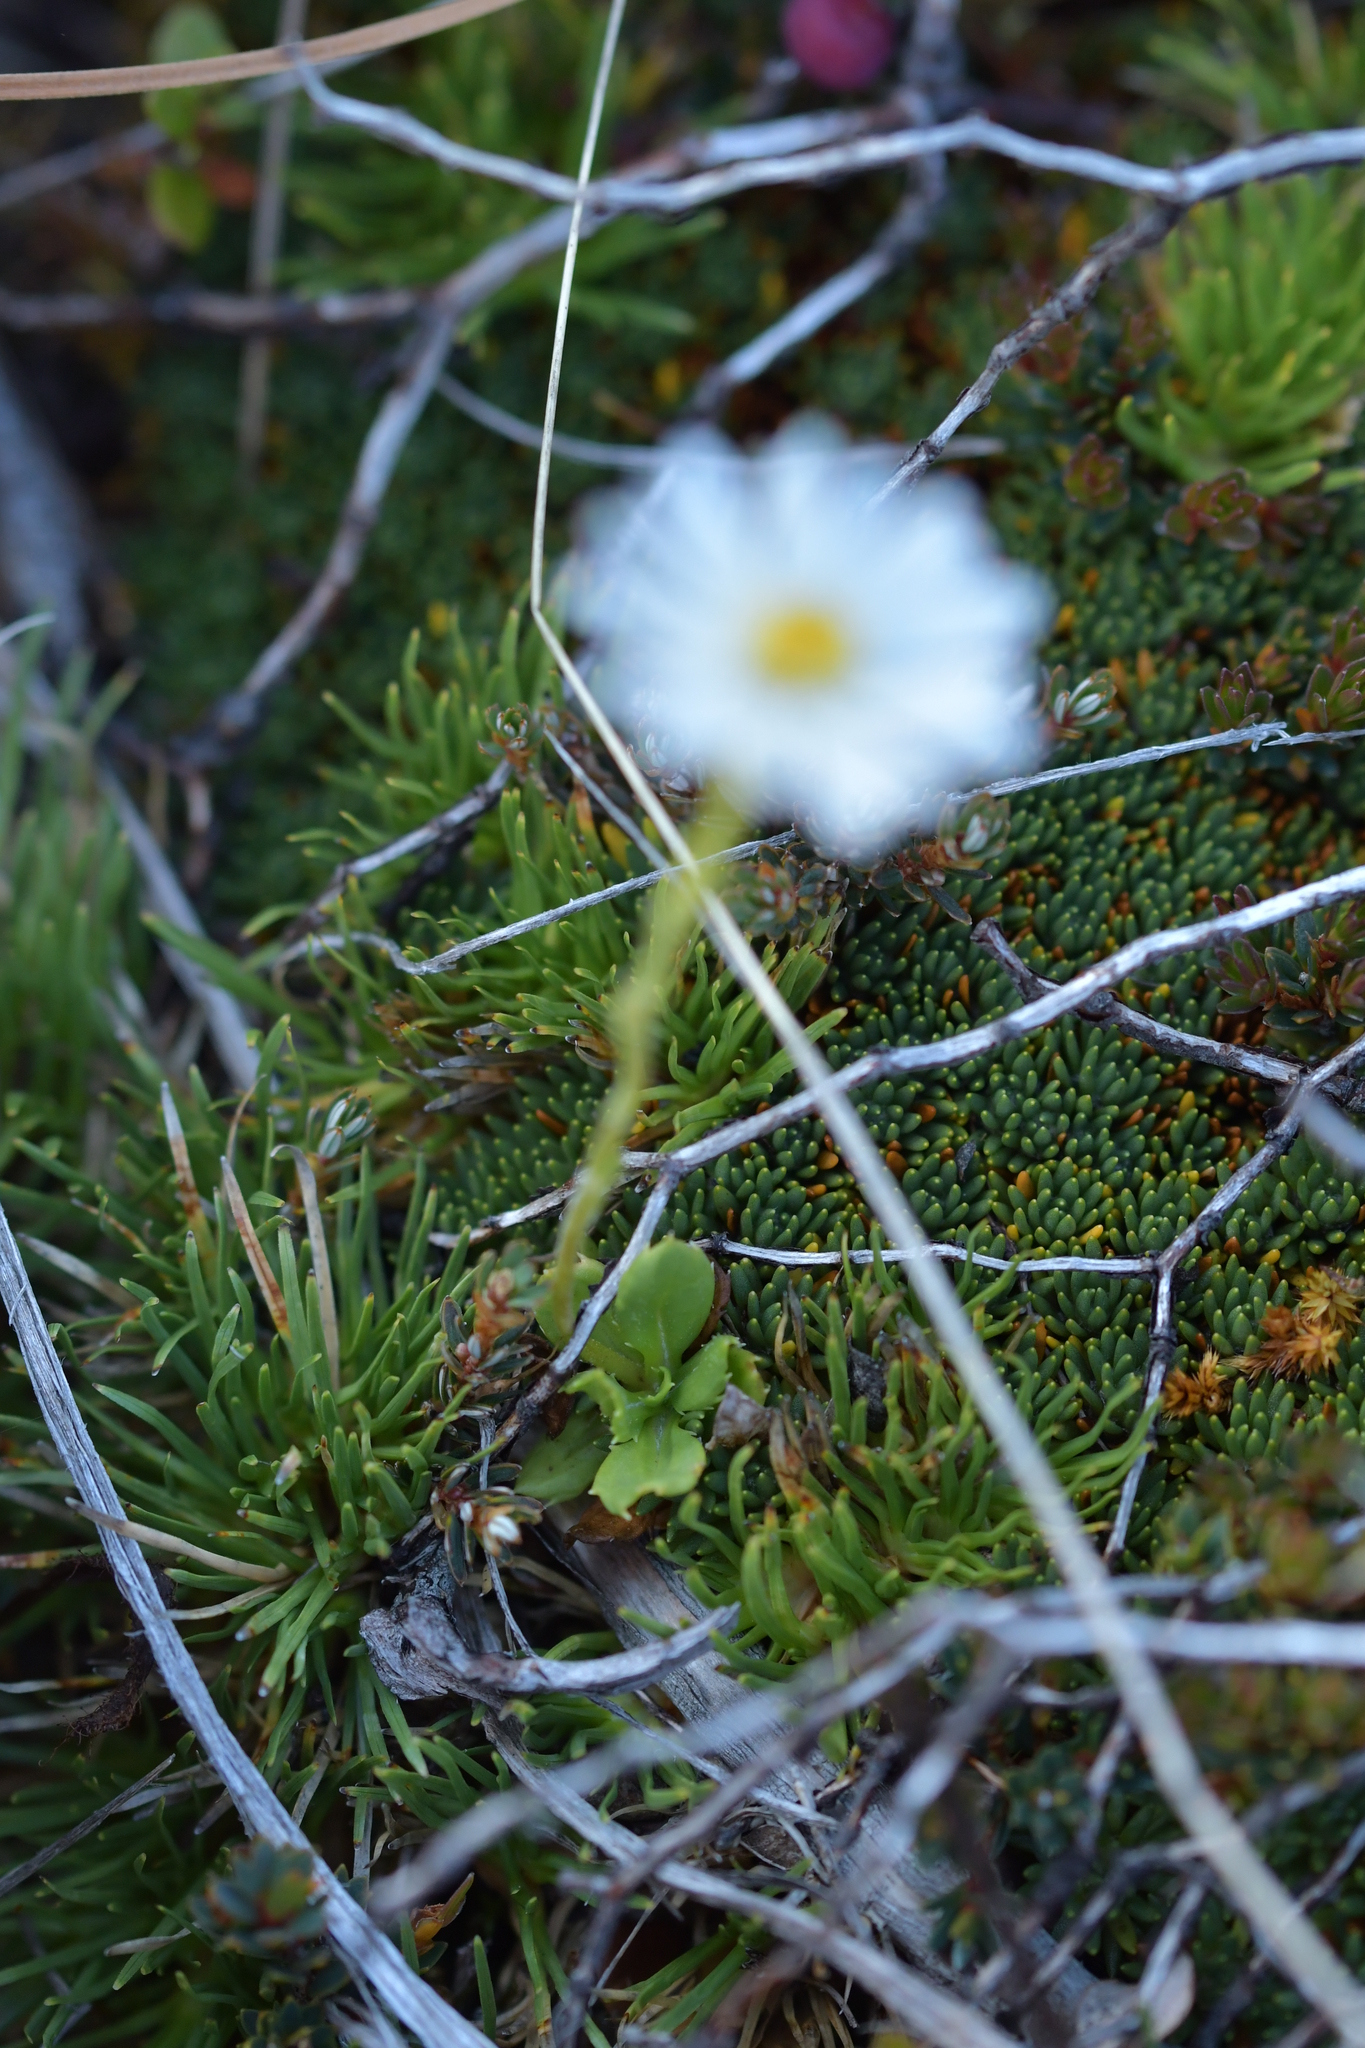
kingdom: Plantae
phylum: Tracheophyta
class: Magnoliopsida
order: Asterales
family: Asteraceae
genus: Celmisia
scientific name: Celmisia glandulosa
